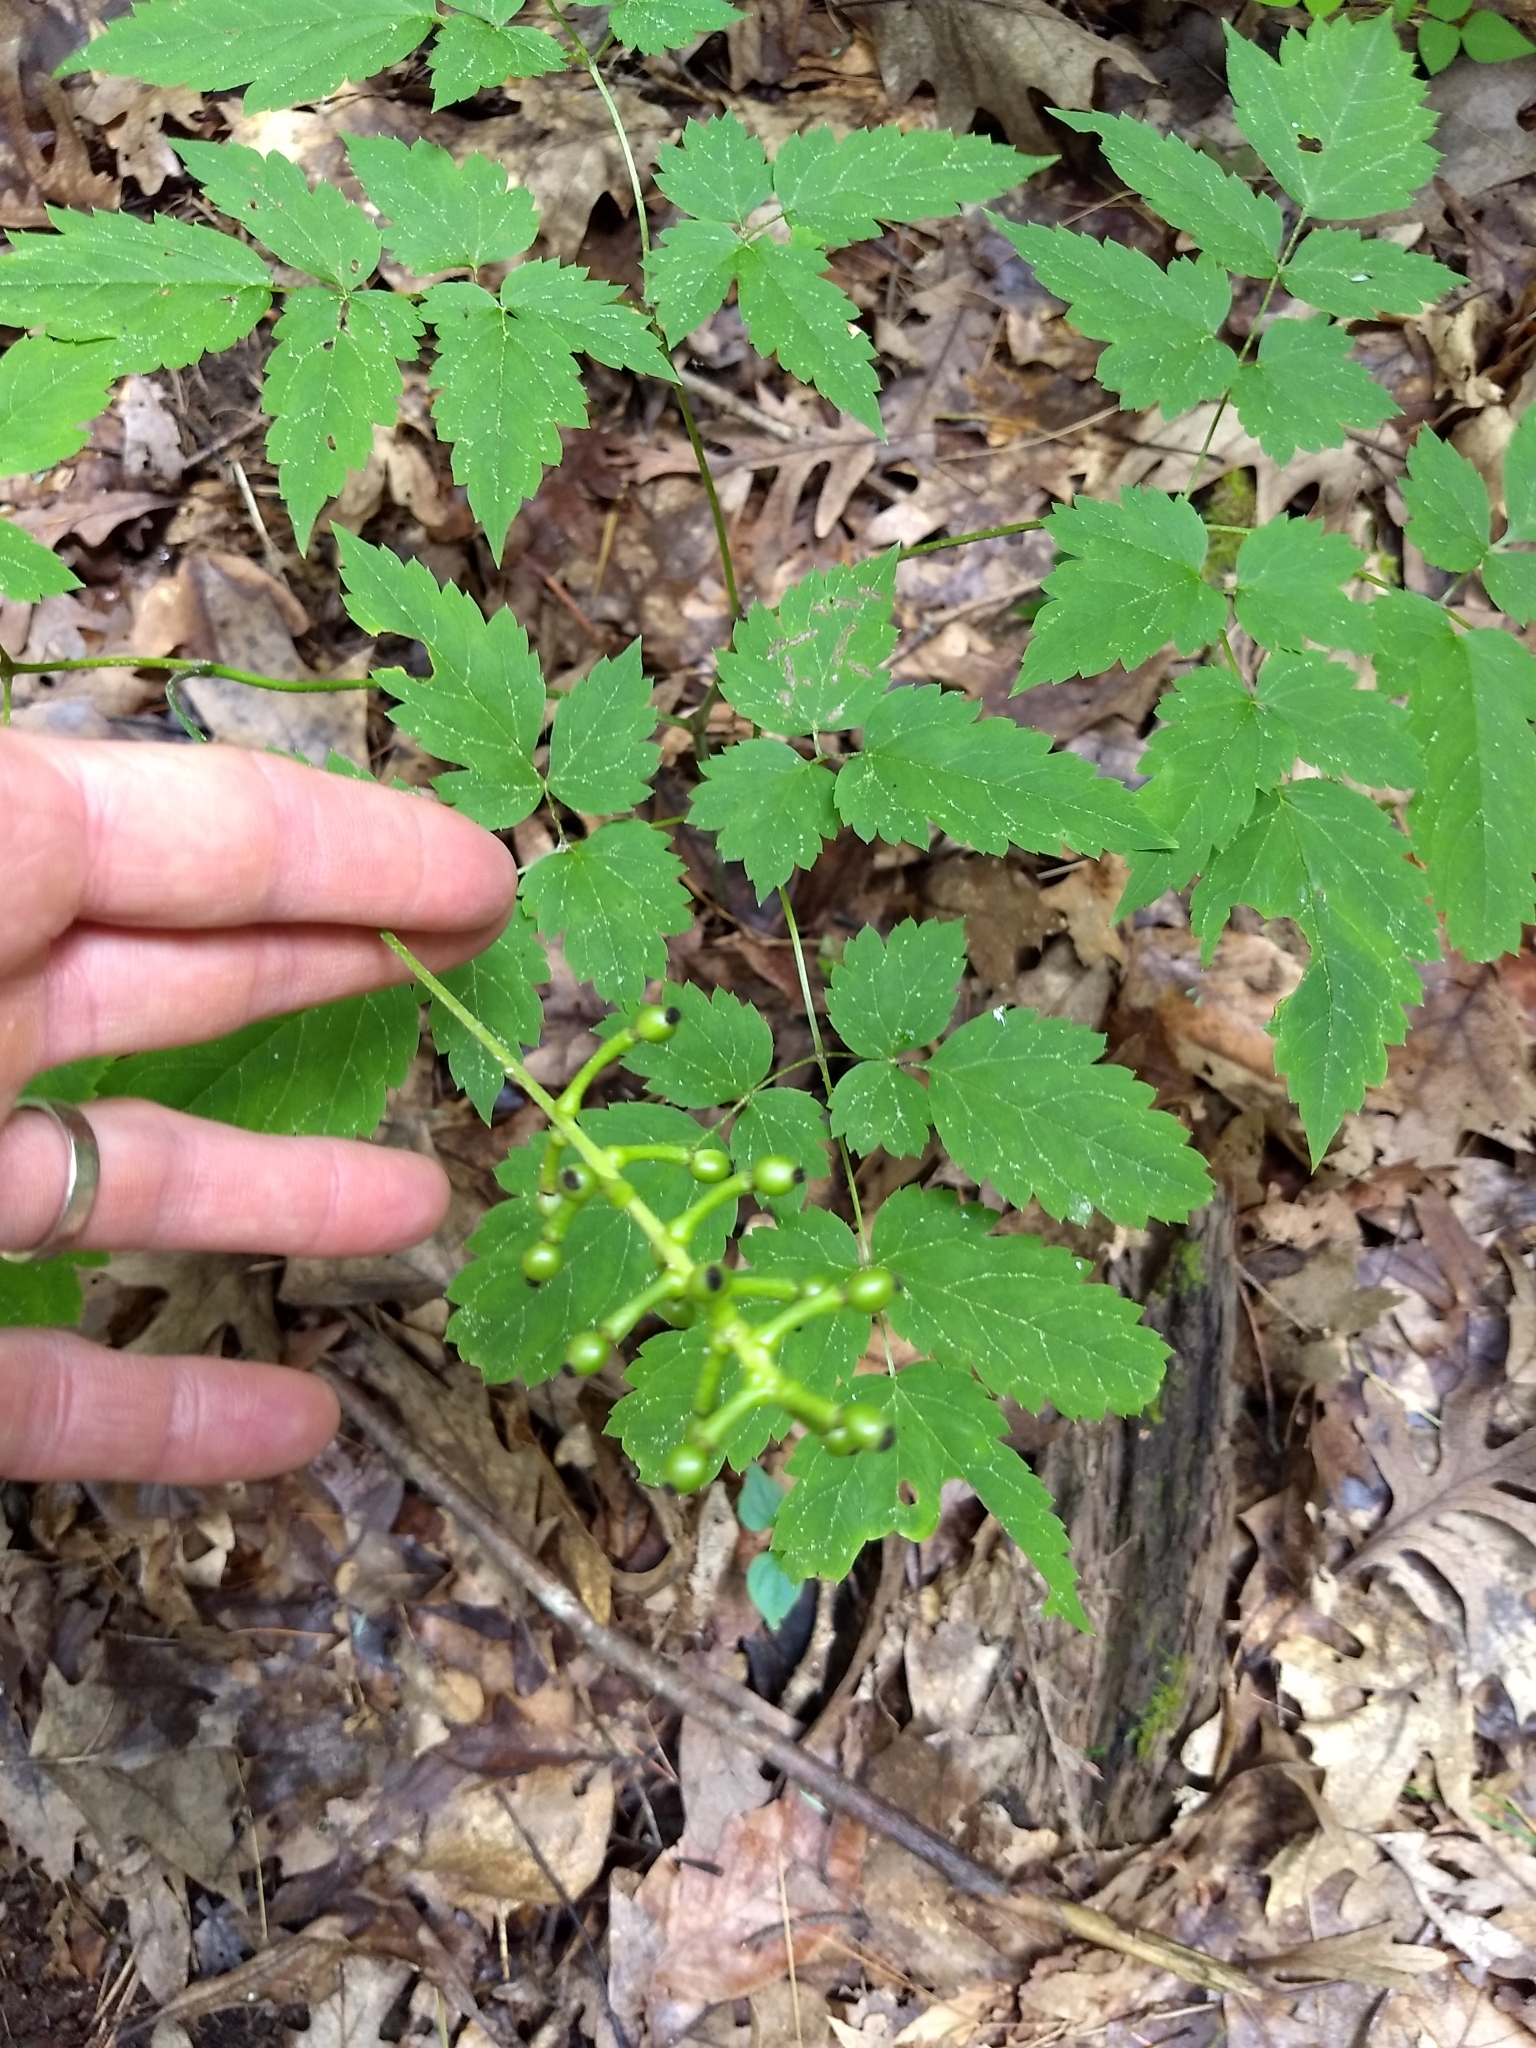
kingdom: Plantae
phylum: Tracheophyta
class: Magnoliopsida
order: Ranunculales
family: Ranunculaceae
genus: Actaea
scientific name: Actaea pachypoda
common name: Doll's-eyes
